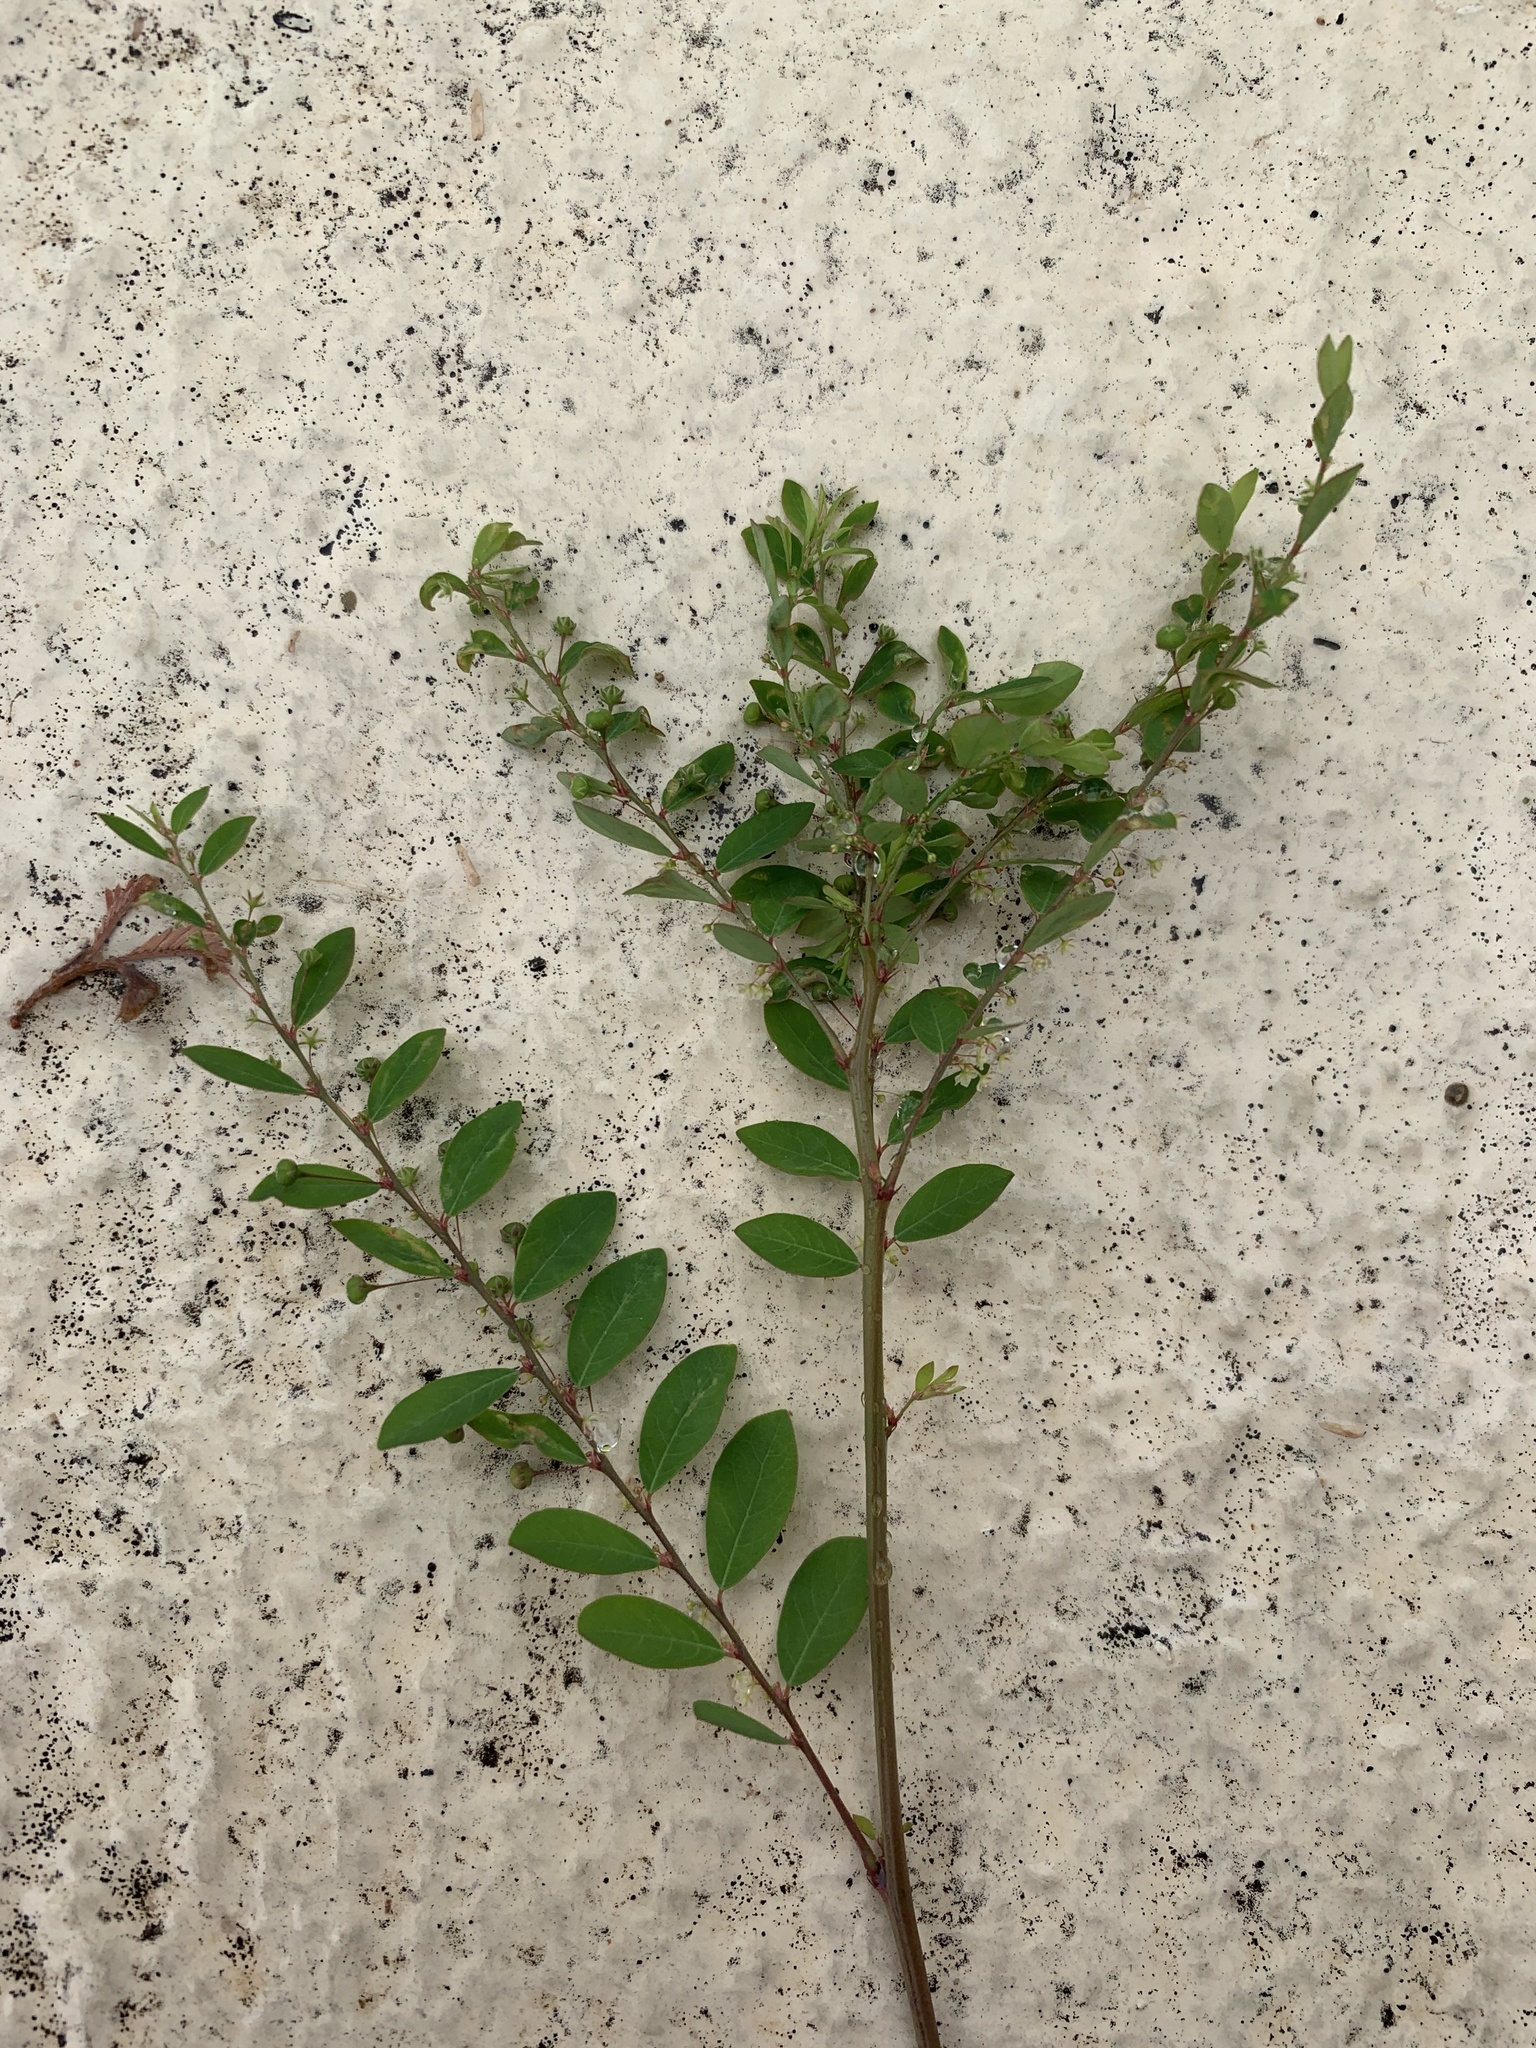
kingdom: Plantae
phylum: Tracheophyta
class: Magnoliopsida
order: Malpighiales
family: Phyllanthaceae
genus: Phyllanthus
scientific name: Phyllanthus tenellus
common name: Mascarene island leaf-flower
